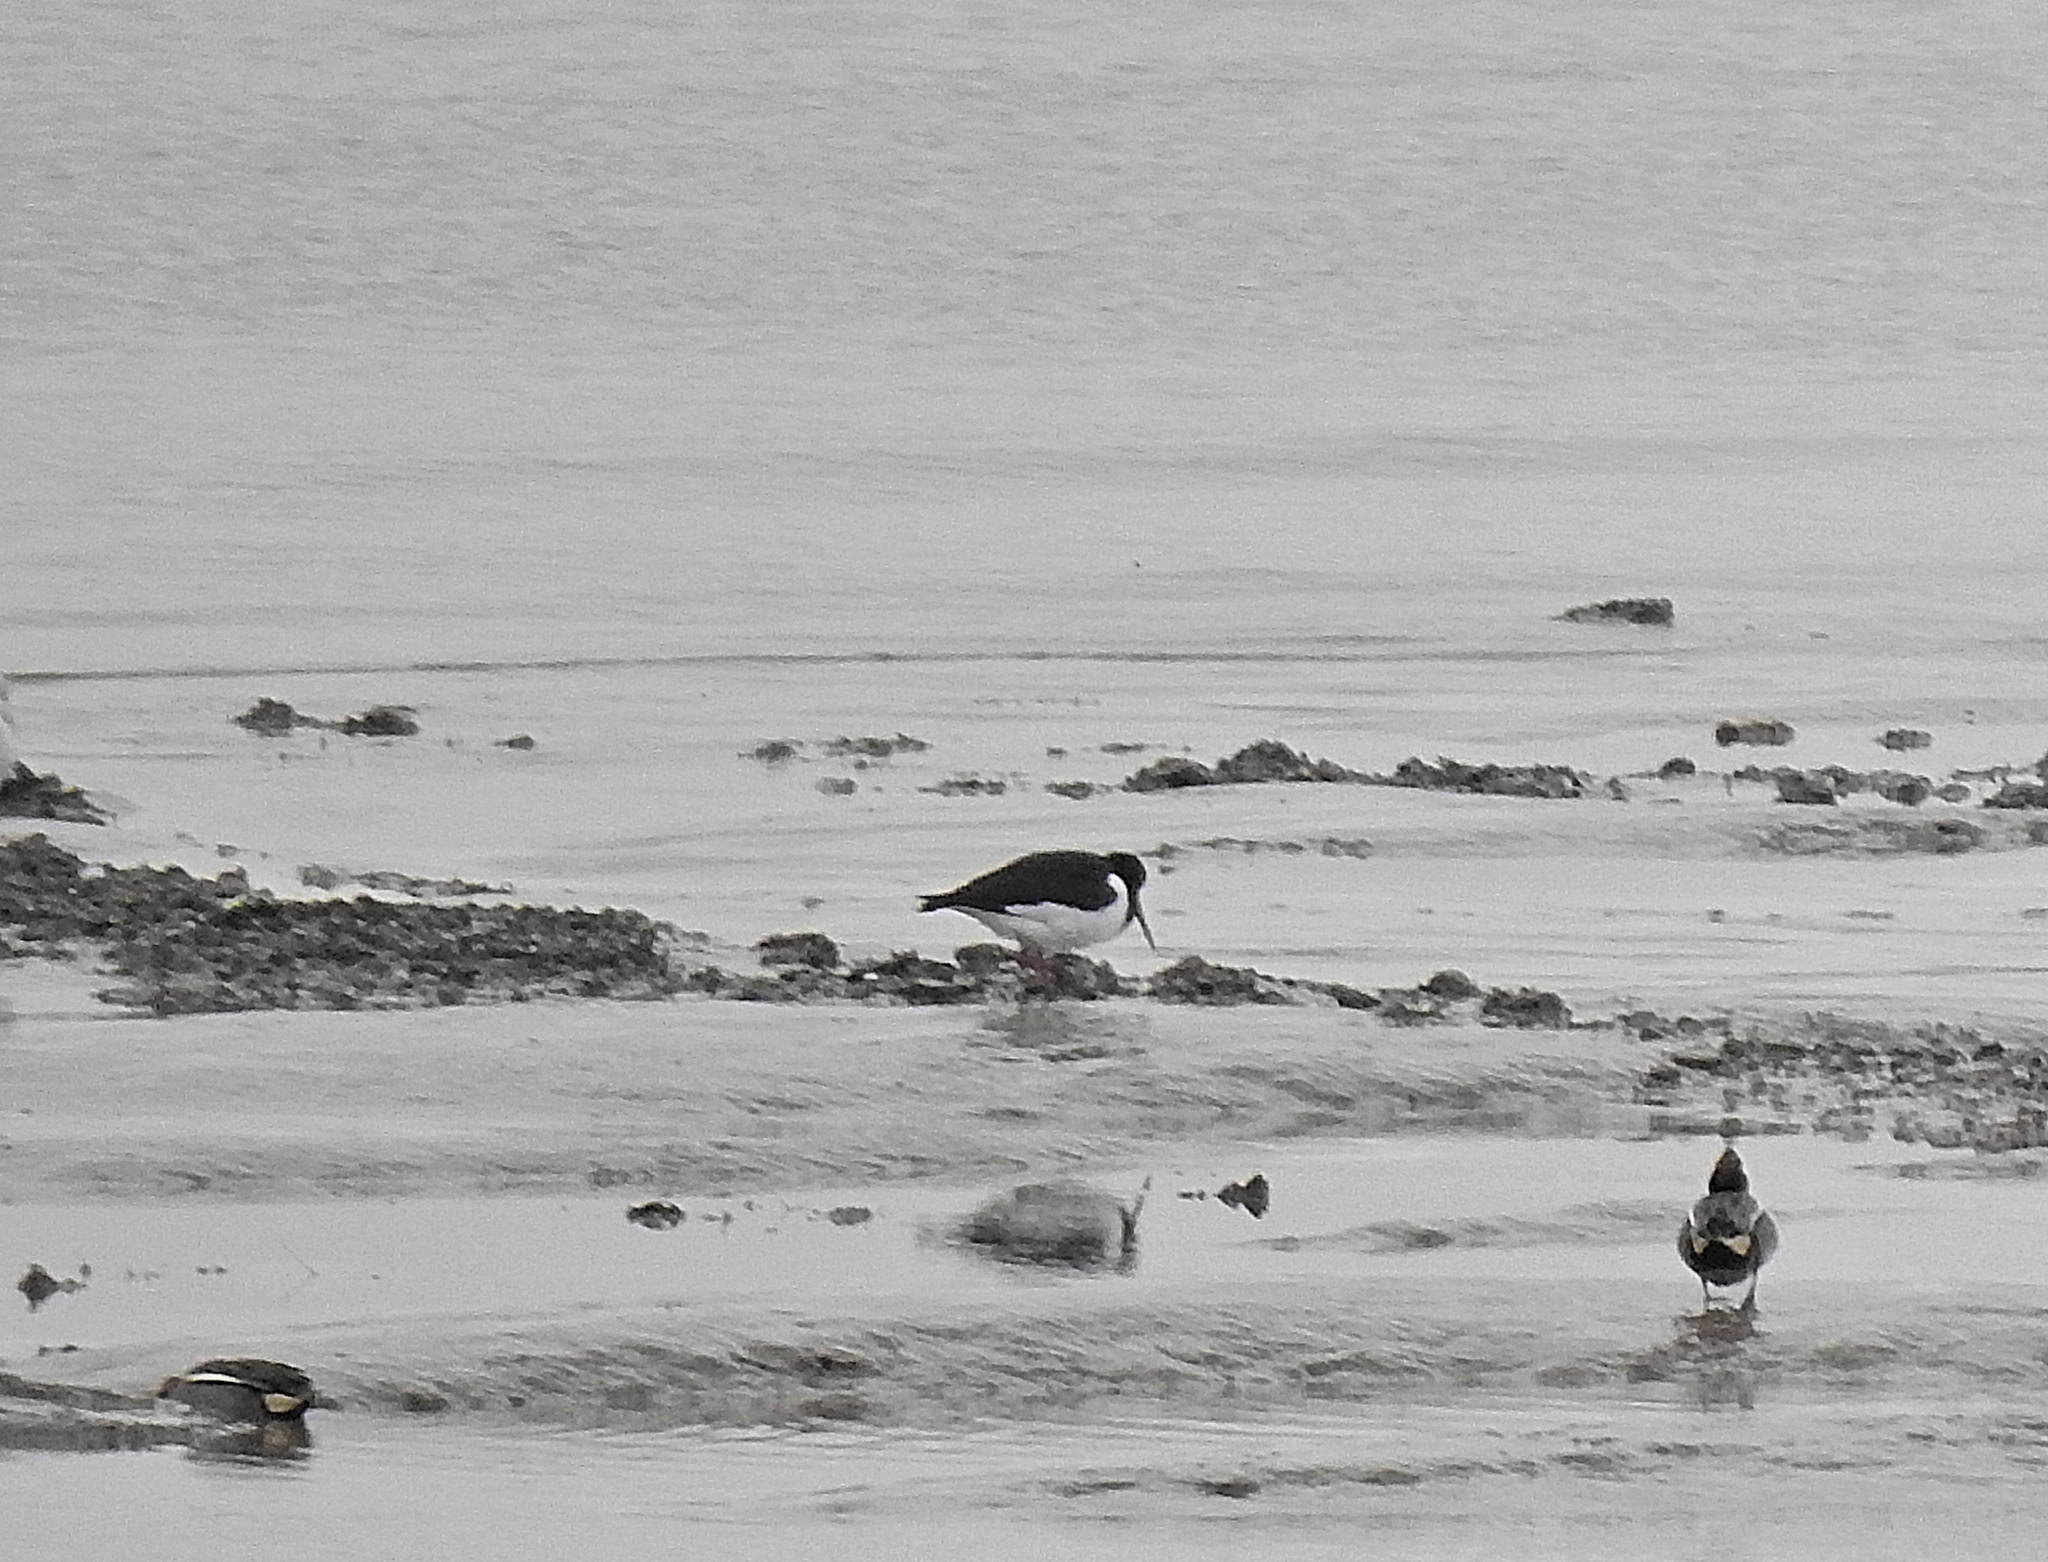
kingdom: Animalia
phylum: Chordata
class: Aves
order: Charadriiformes
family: Haematopodidae
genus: Haematopus
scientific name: Haematopus ostralegus
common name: Eurasian oystercatcher
